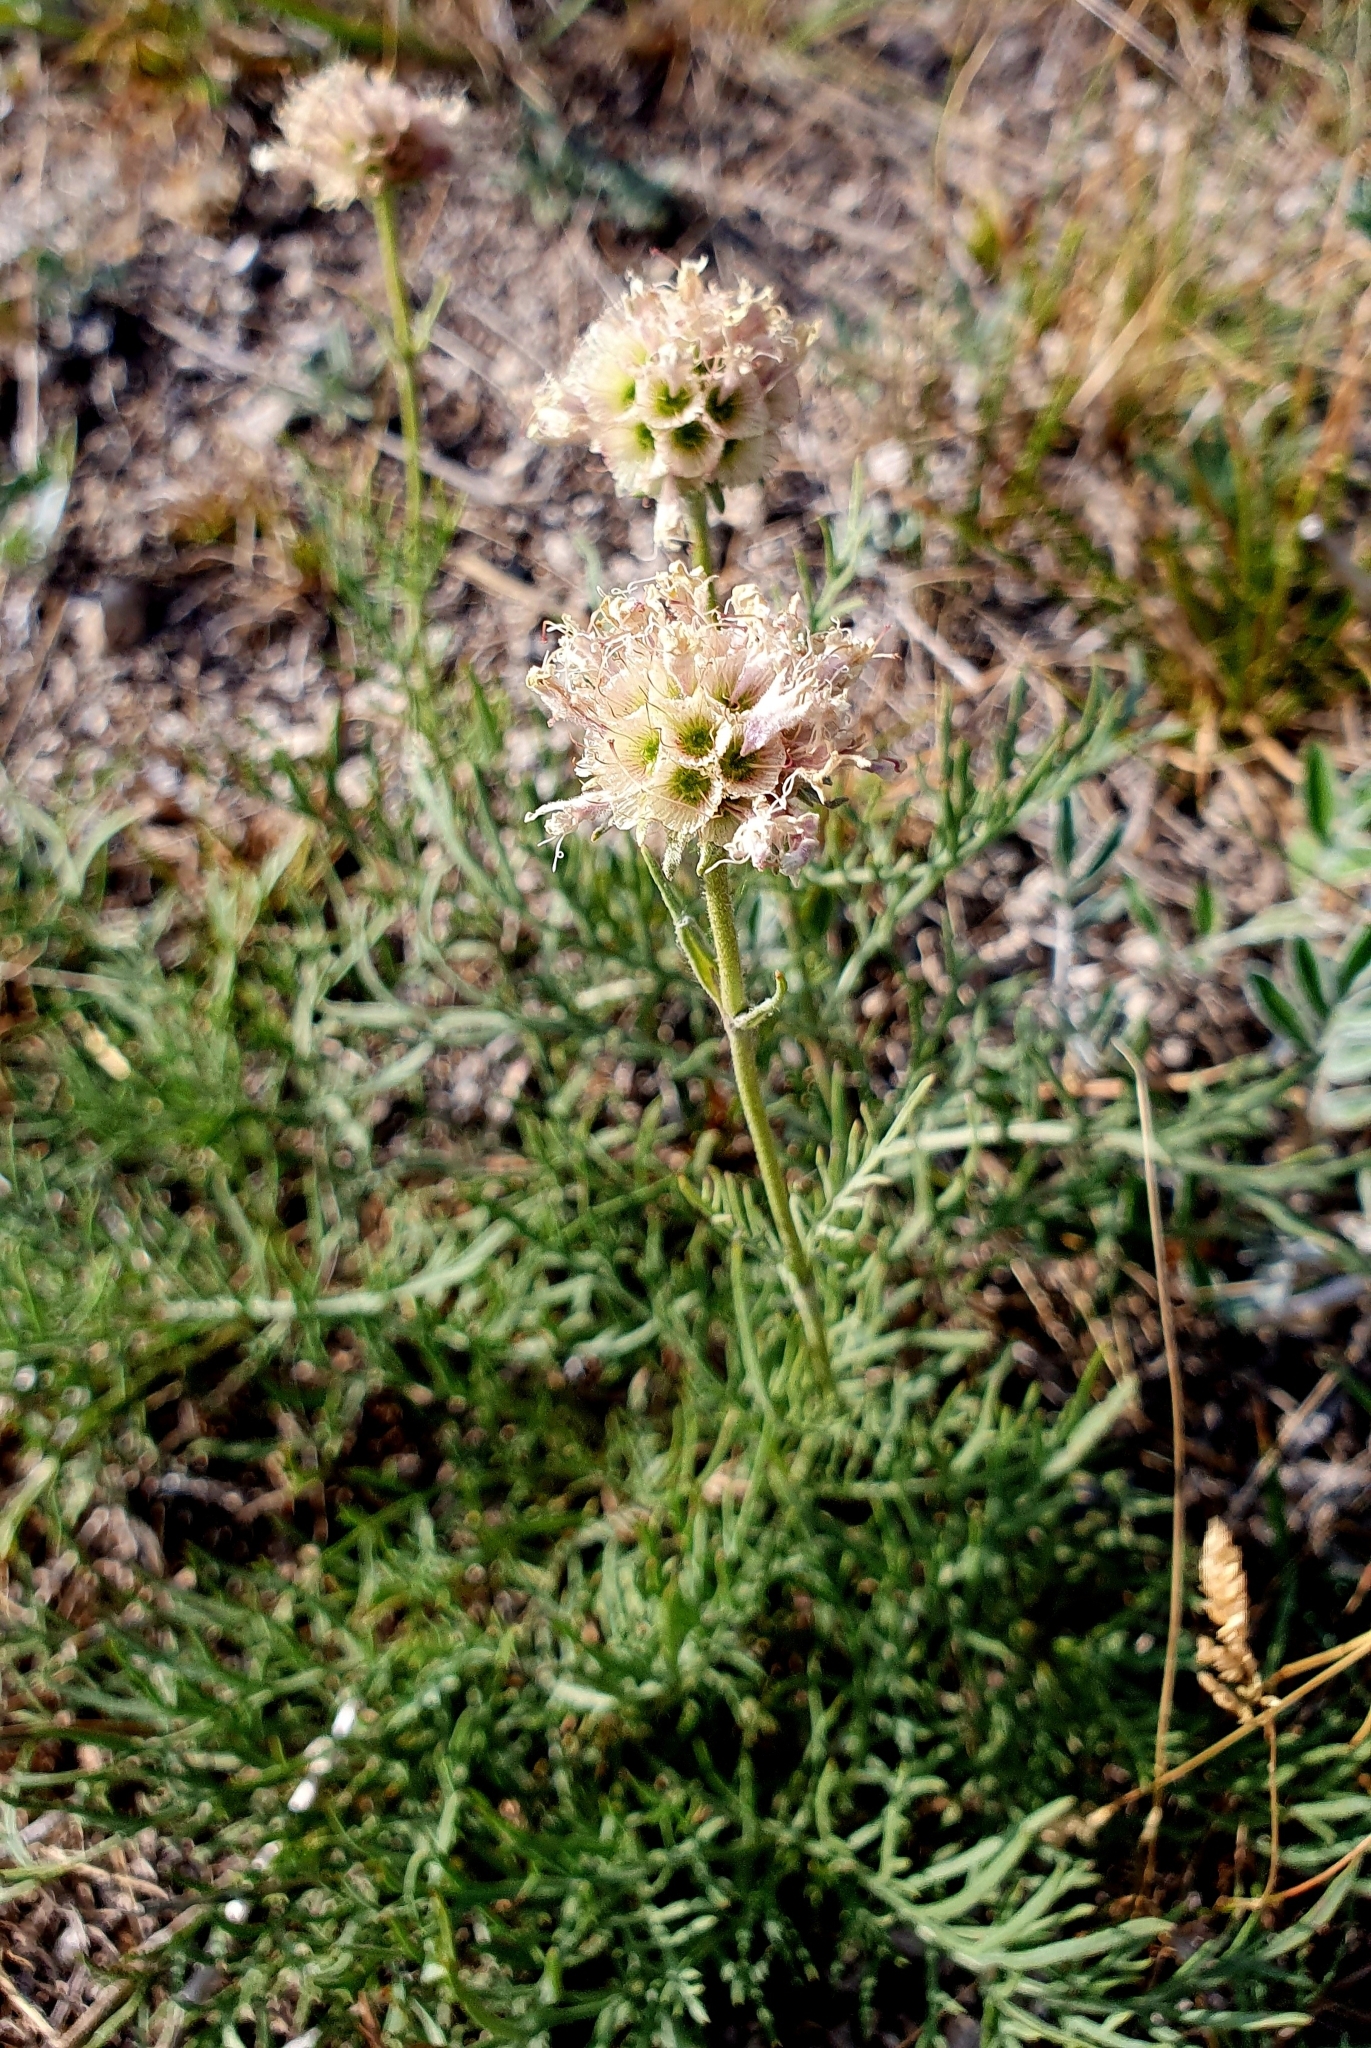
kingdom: Plantae
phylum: Tracheophyta
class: Magnoliopsida
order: Dipsacales
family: Caprifoliaceae
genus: Lomelosia
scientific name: Lomelosia isetensis
